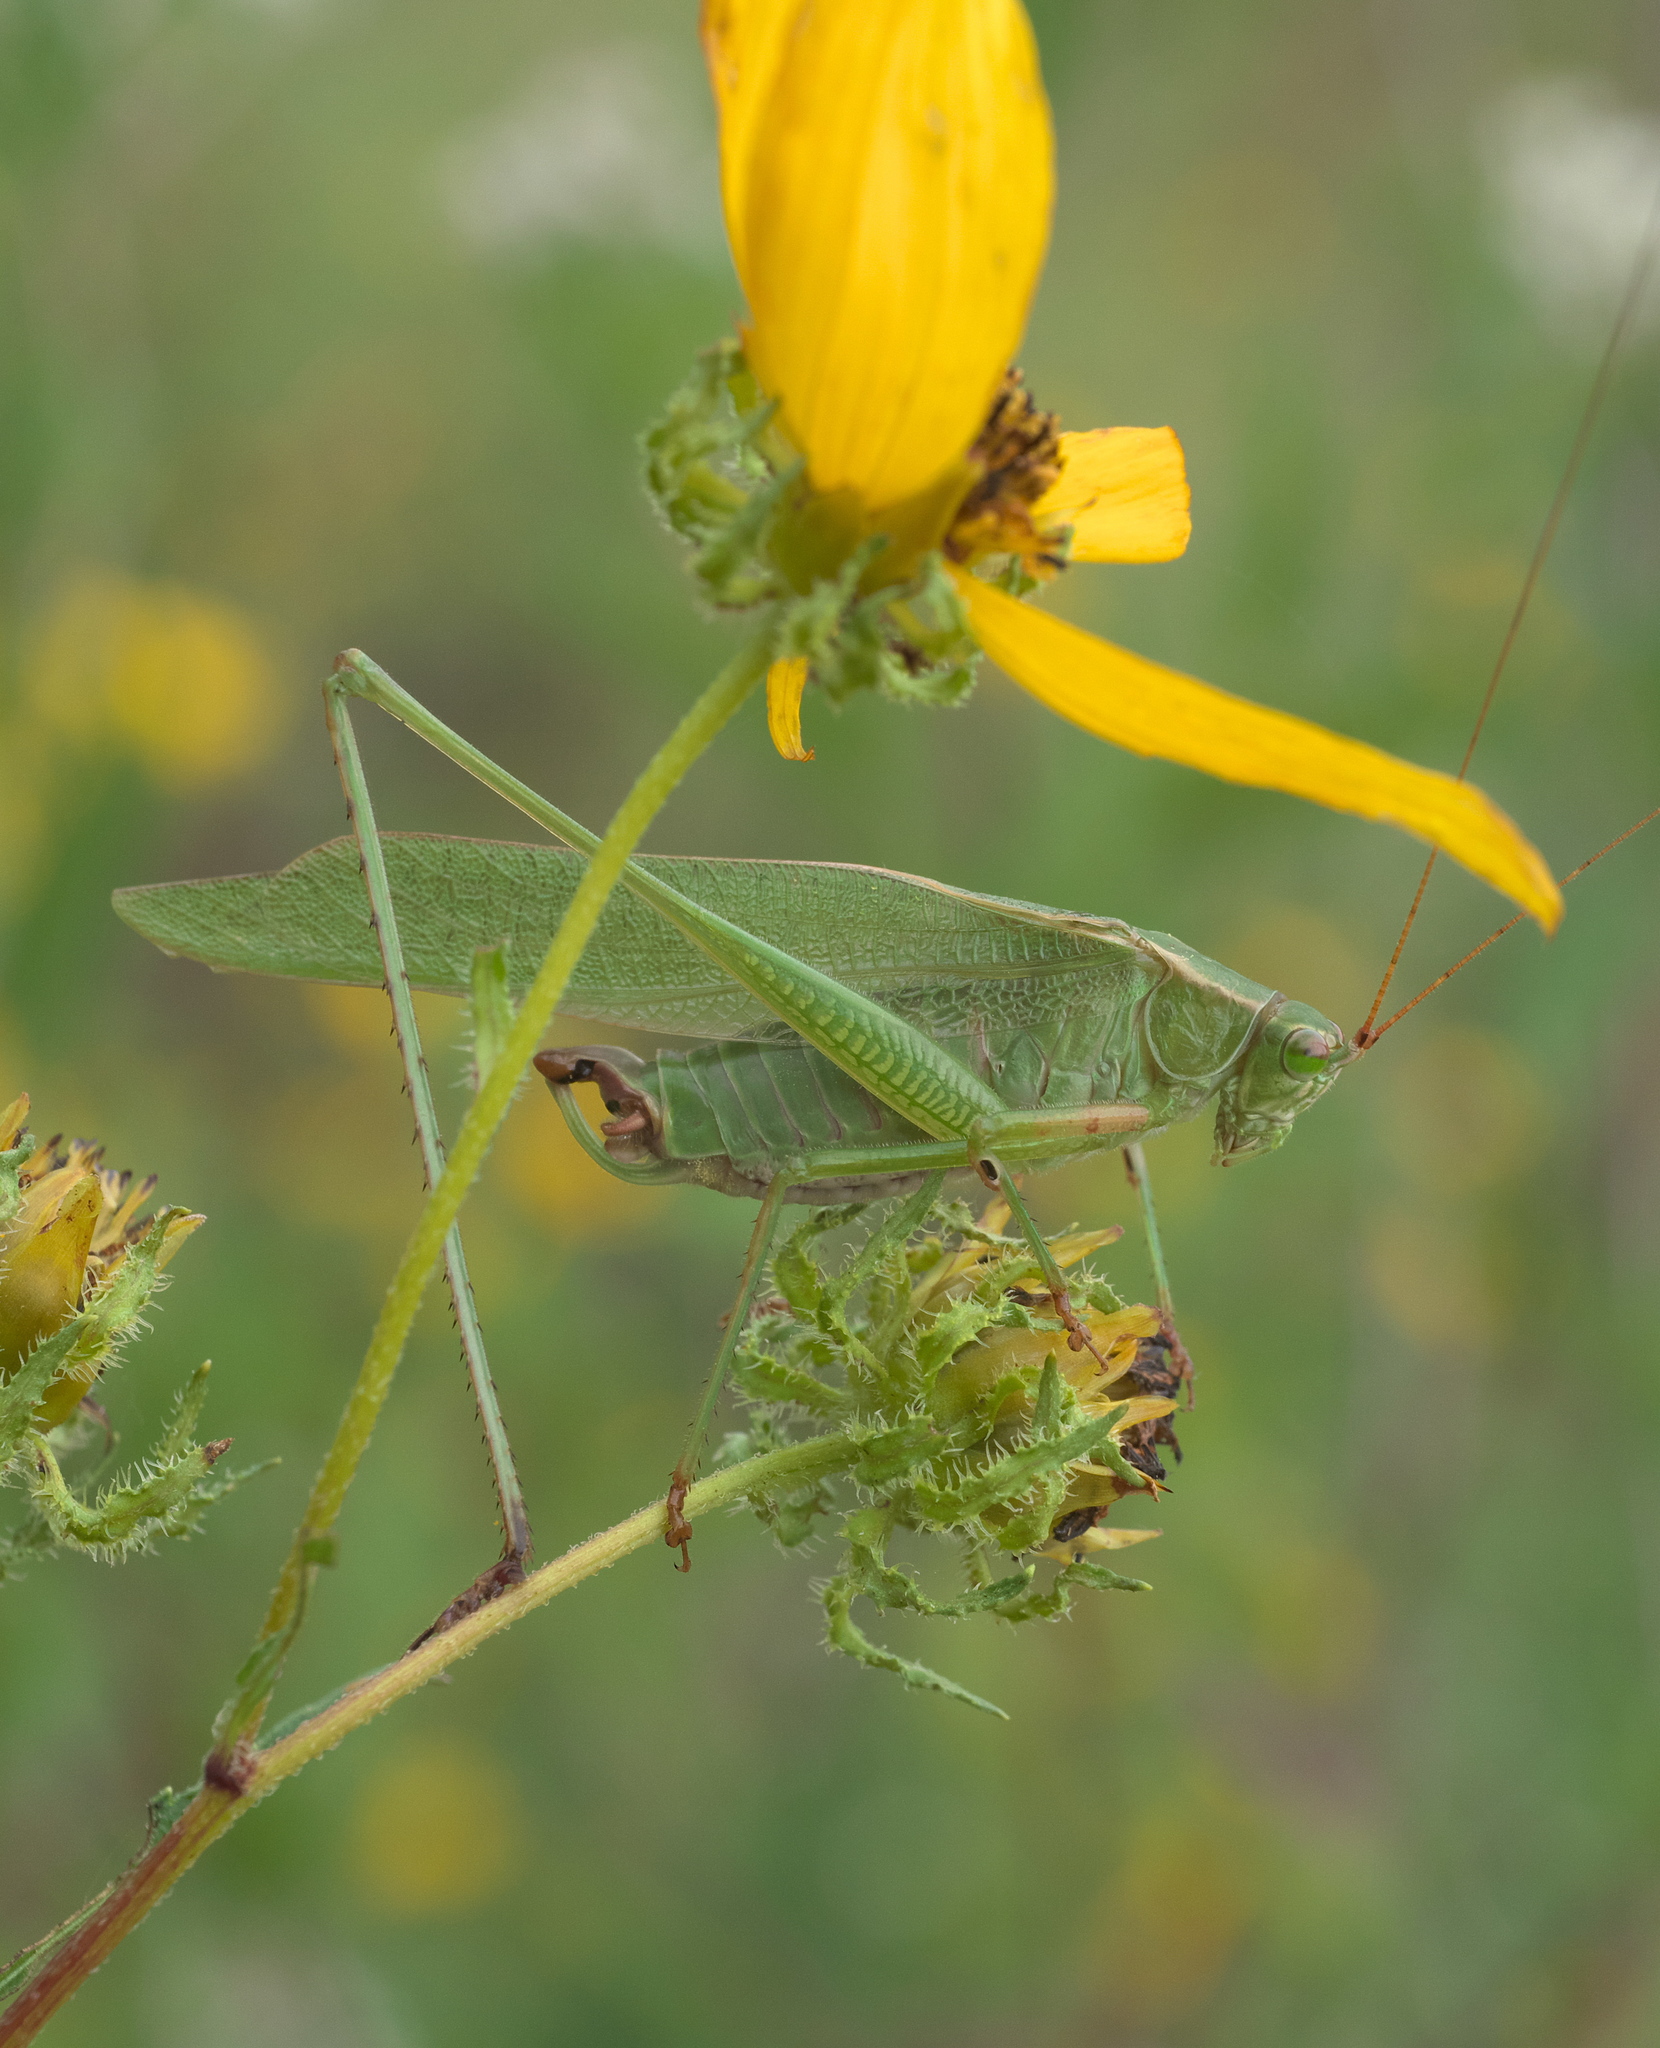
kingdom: Animalia
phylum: Arthropoda
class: Insecta
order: Orthoptera
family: Tettigoniidae
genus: Scudderia
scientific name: Scudderia furcata
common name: Fork-tailed bush katydid
